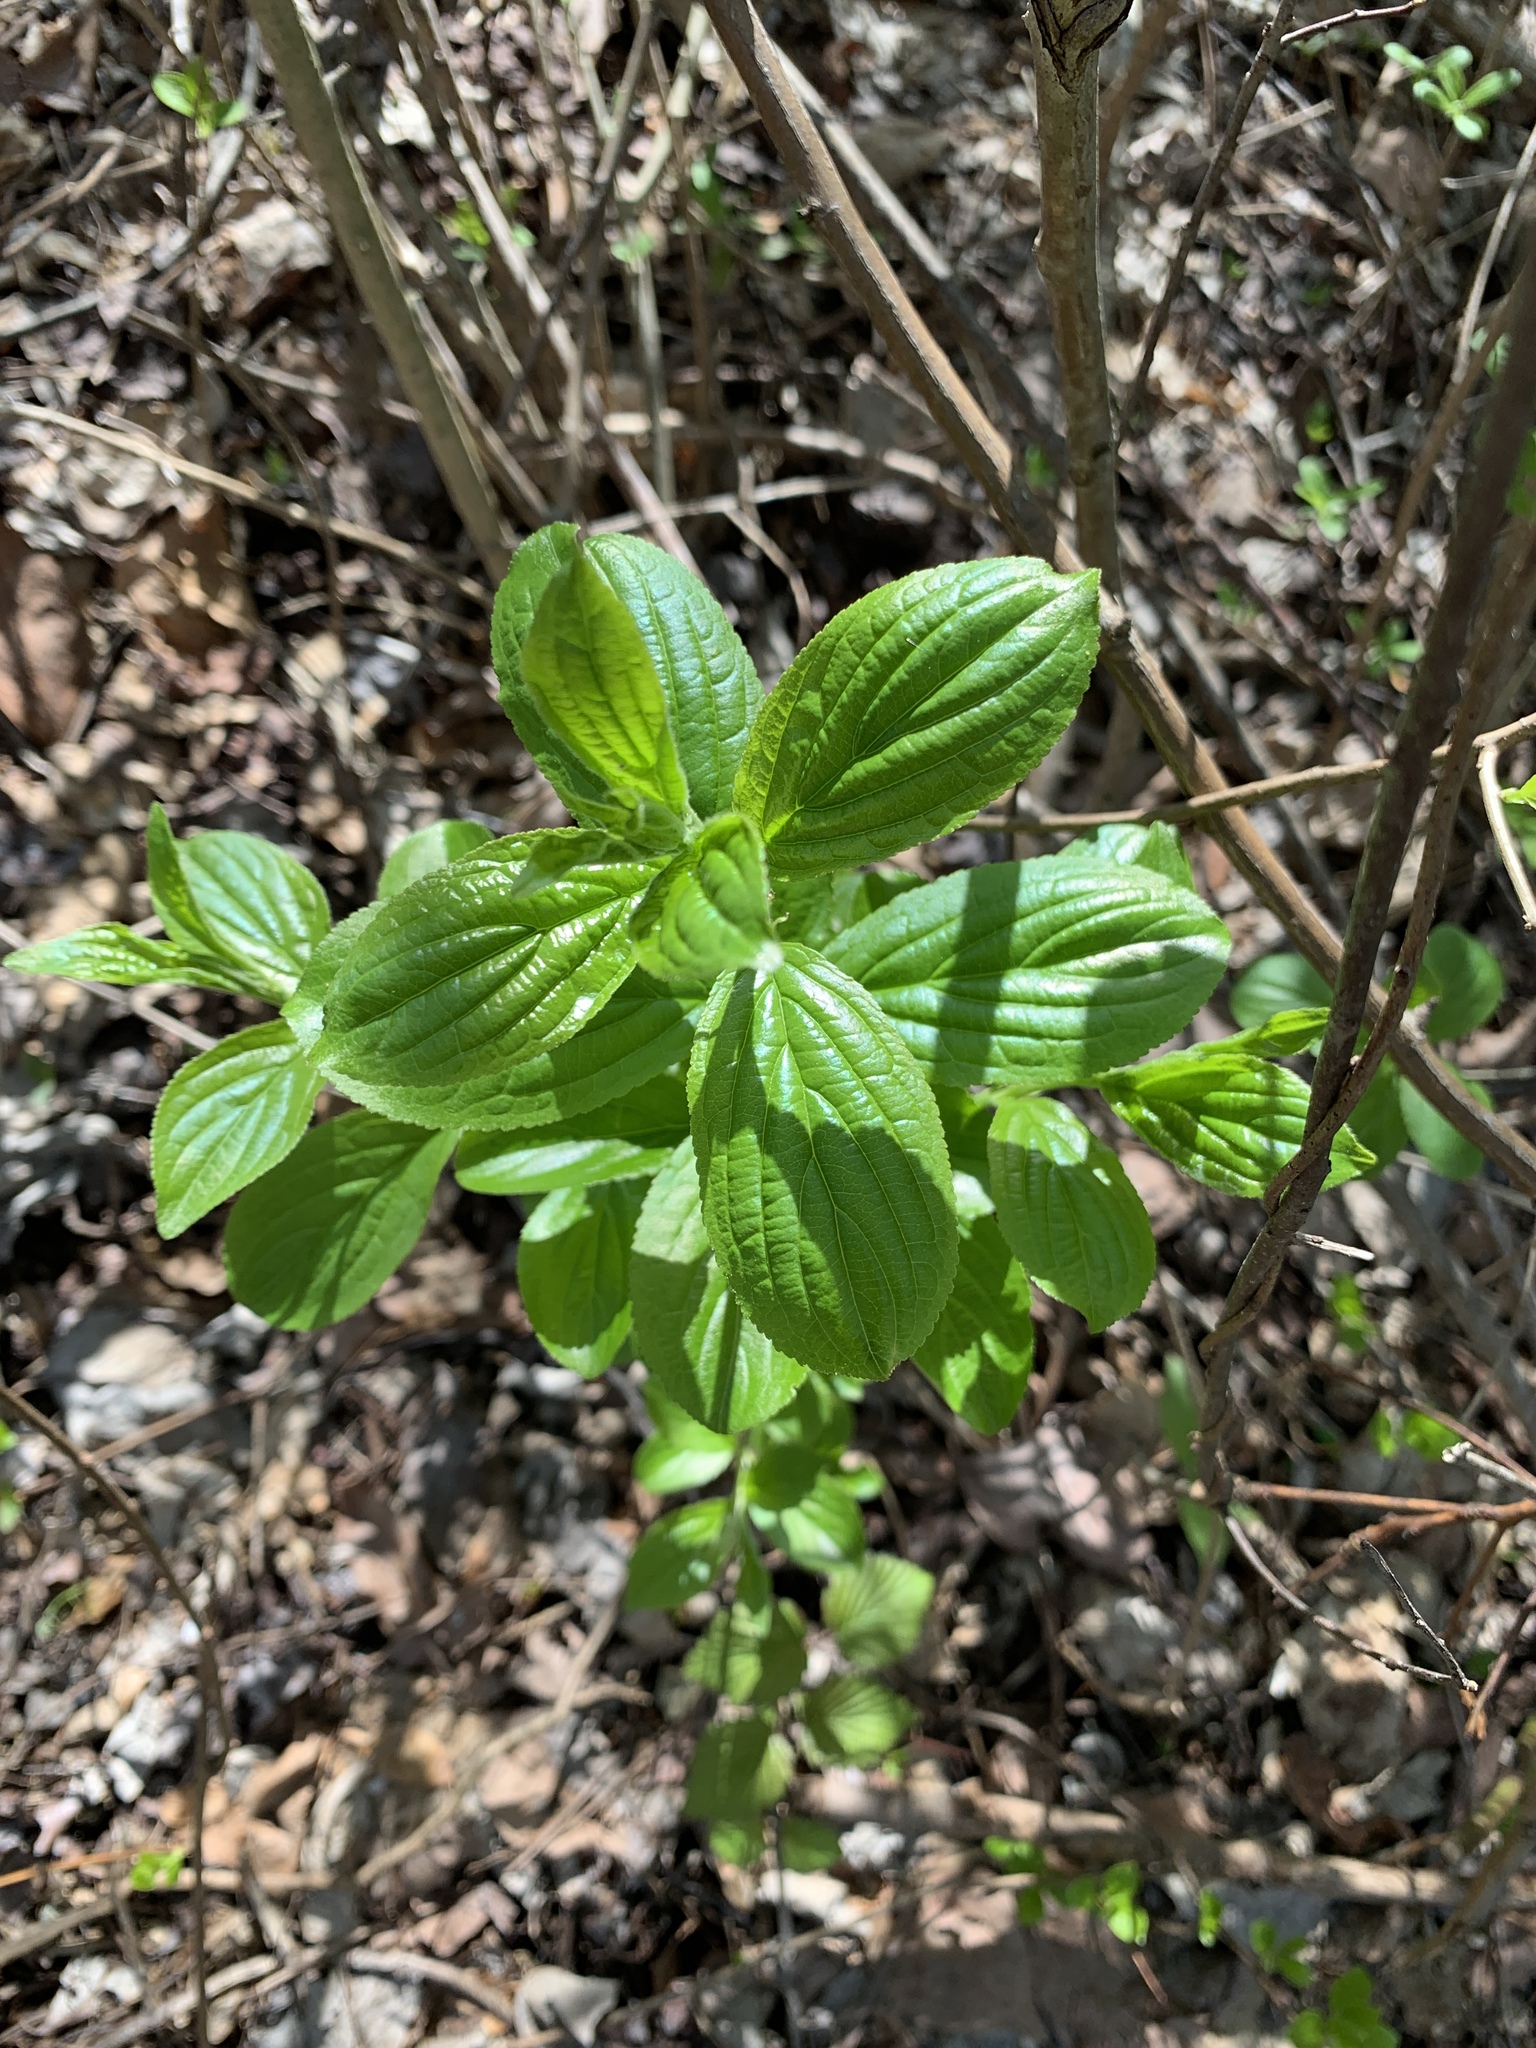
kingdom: Plantae
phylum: Tracheophyta
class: Magnoliopsida
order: Rosales
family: Rhamnaceae
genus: Rhamnus
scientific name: Rhamnus cathartica
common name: Common buckthorn
